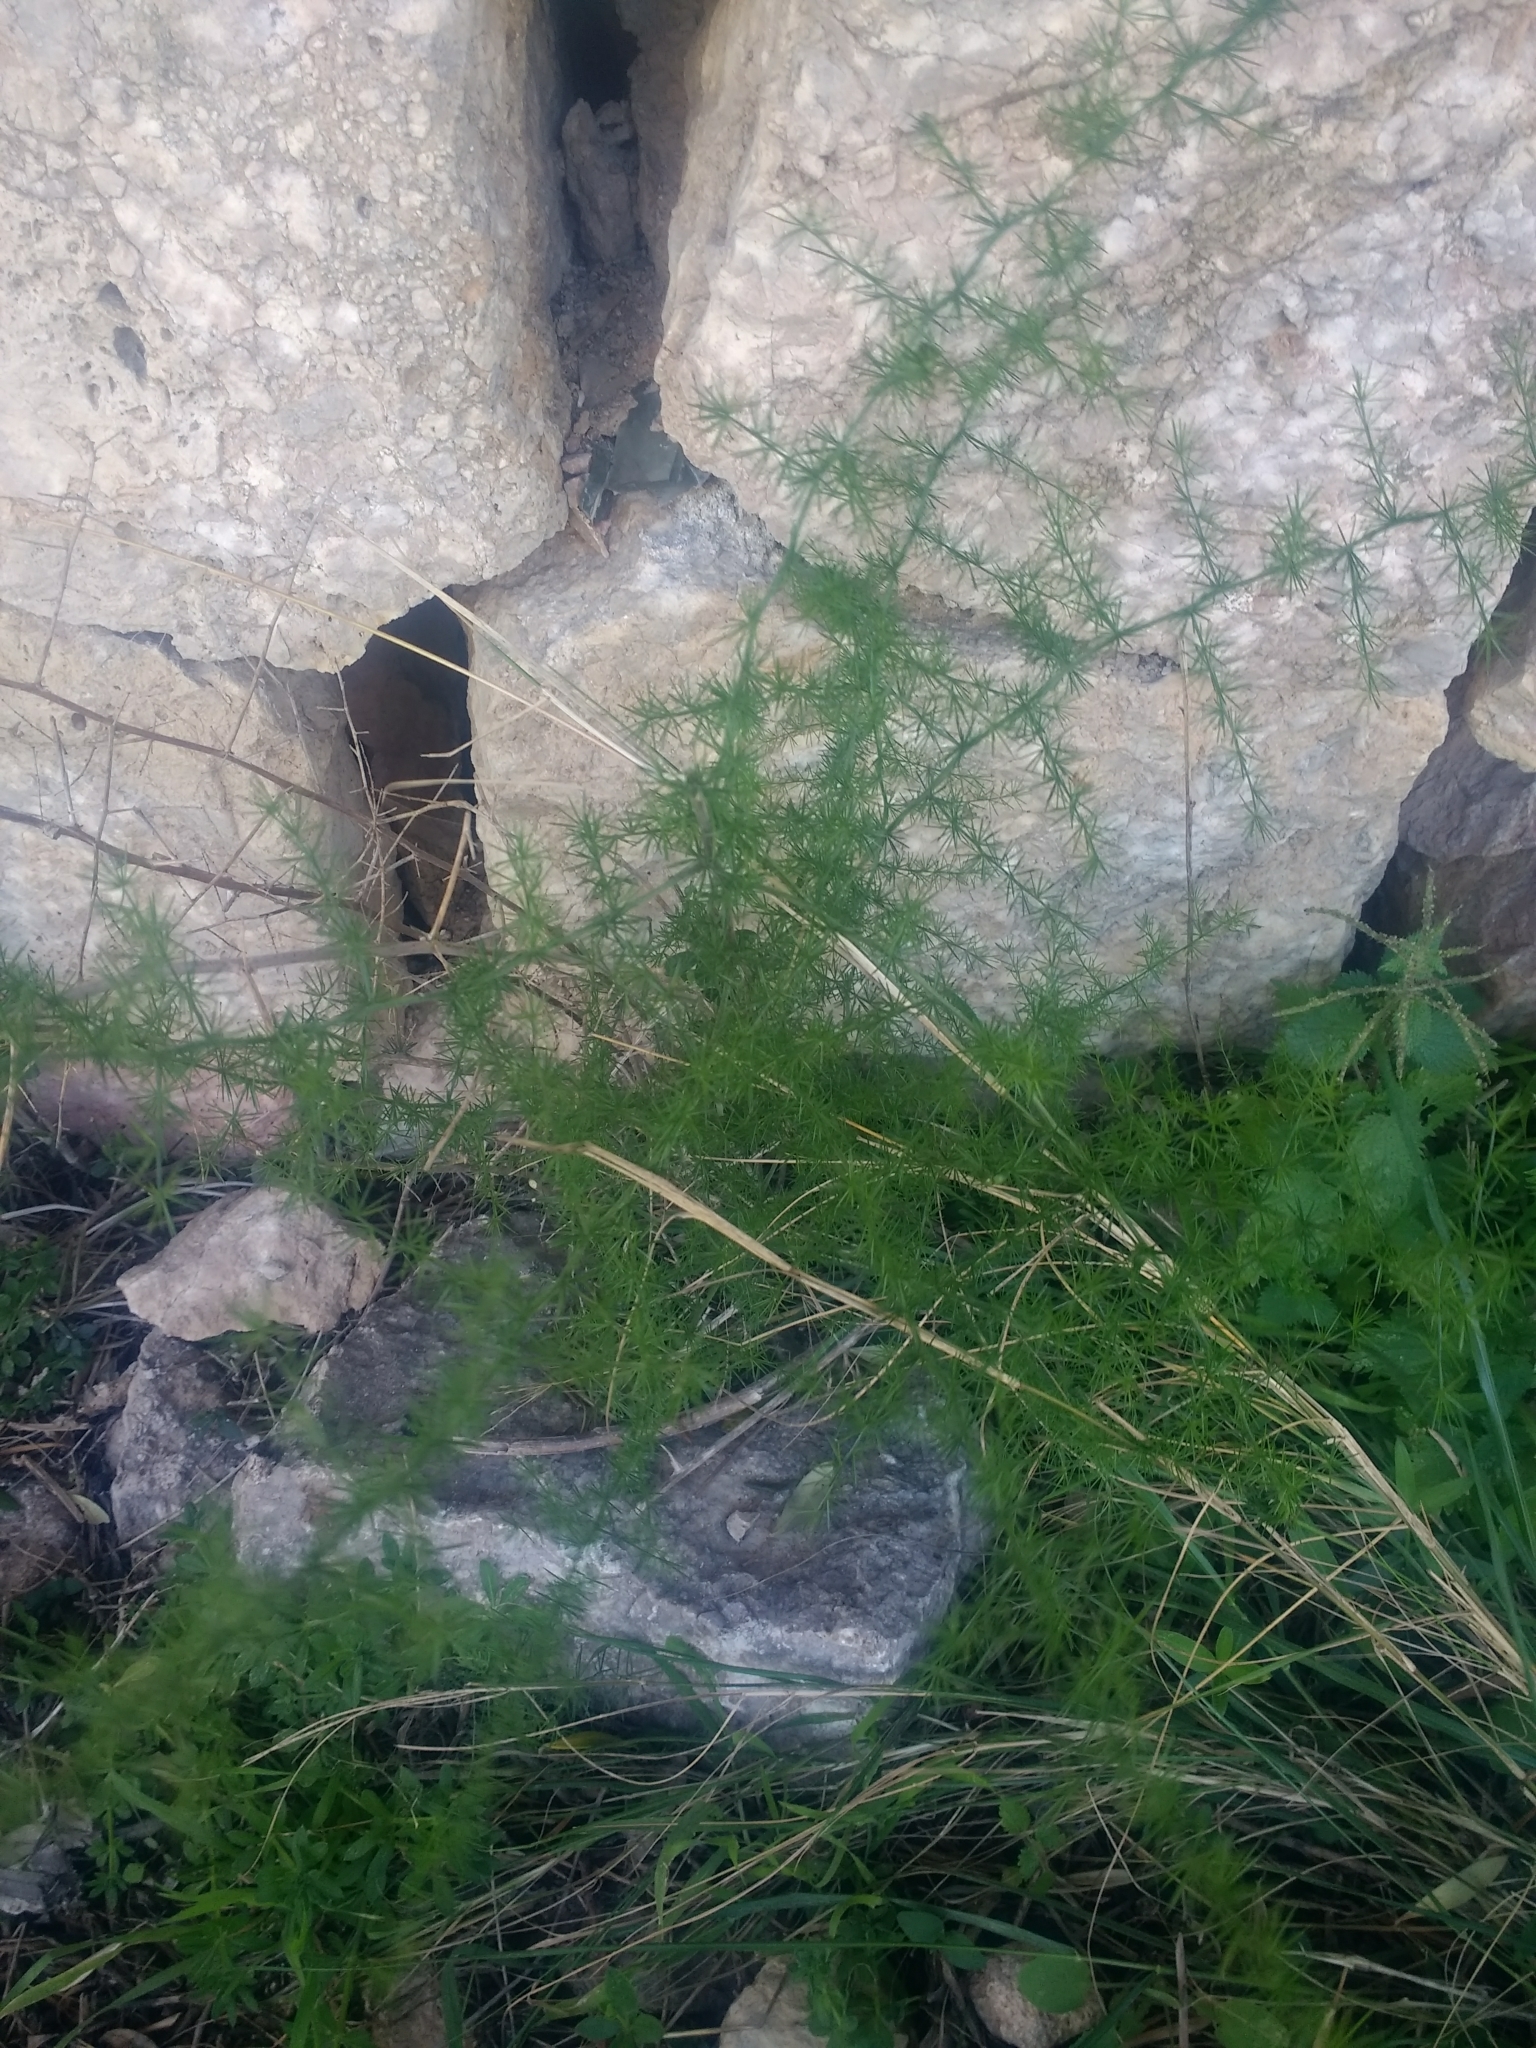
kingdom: Plantae
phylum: Tracheophyta
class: Liliopsida
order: Asparagales
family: Asparagaceae
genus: Asparagus
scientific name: Asparagus acutifolius
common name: Wild asparagus
